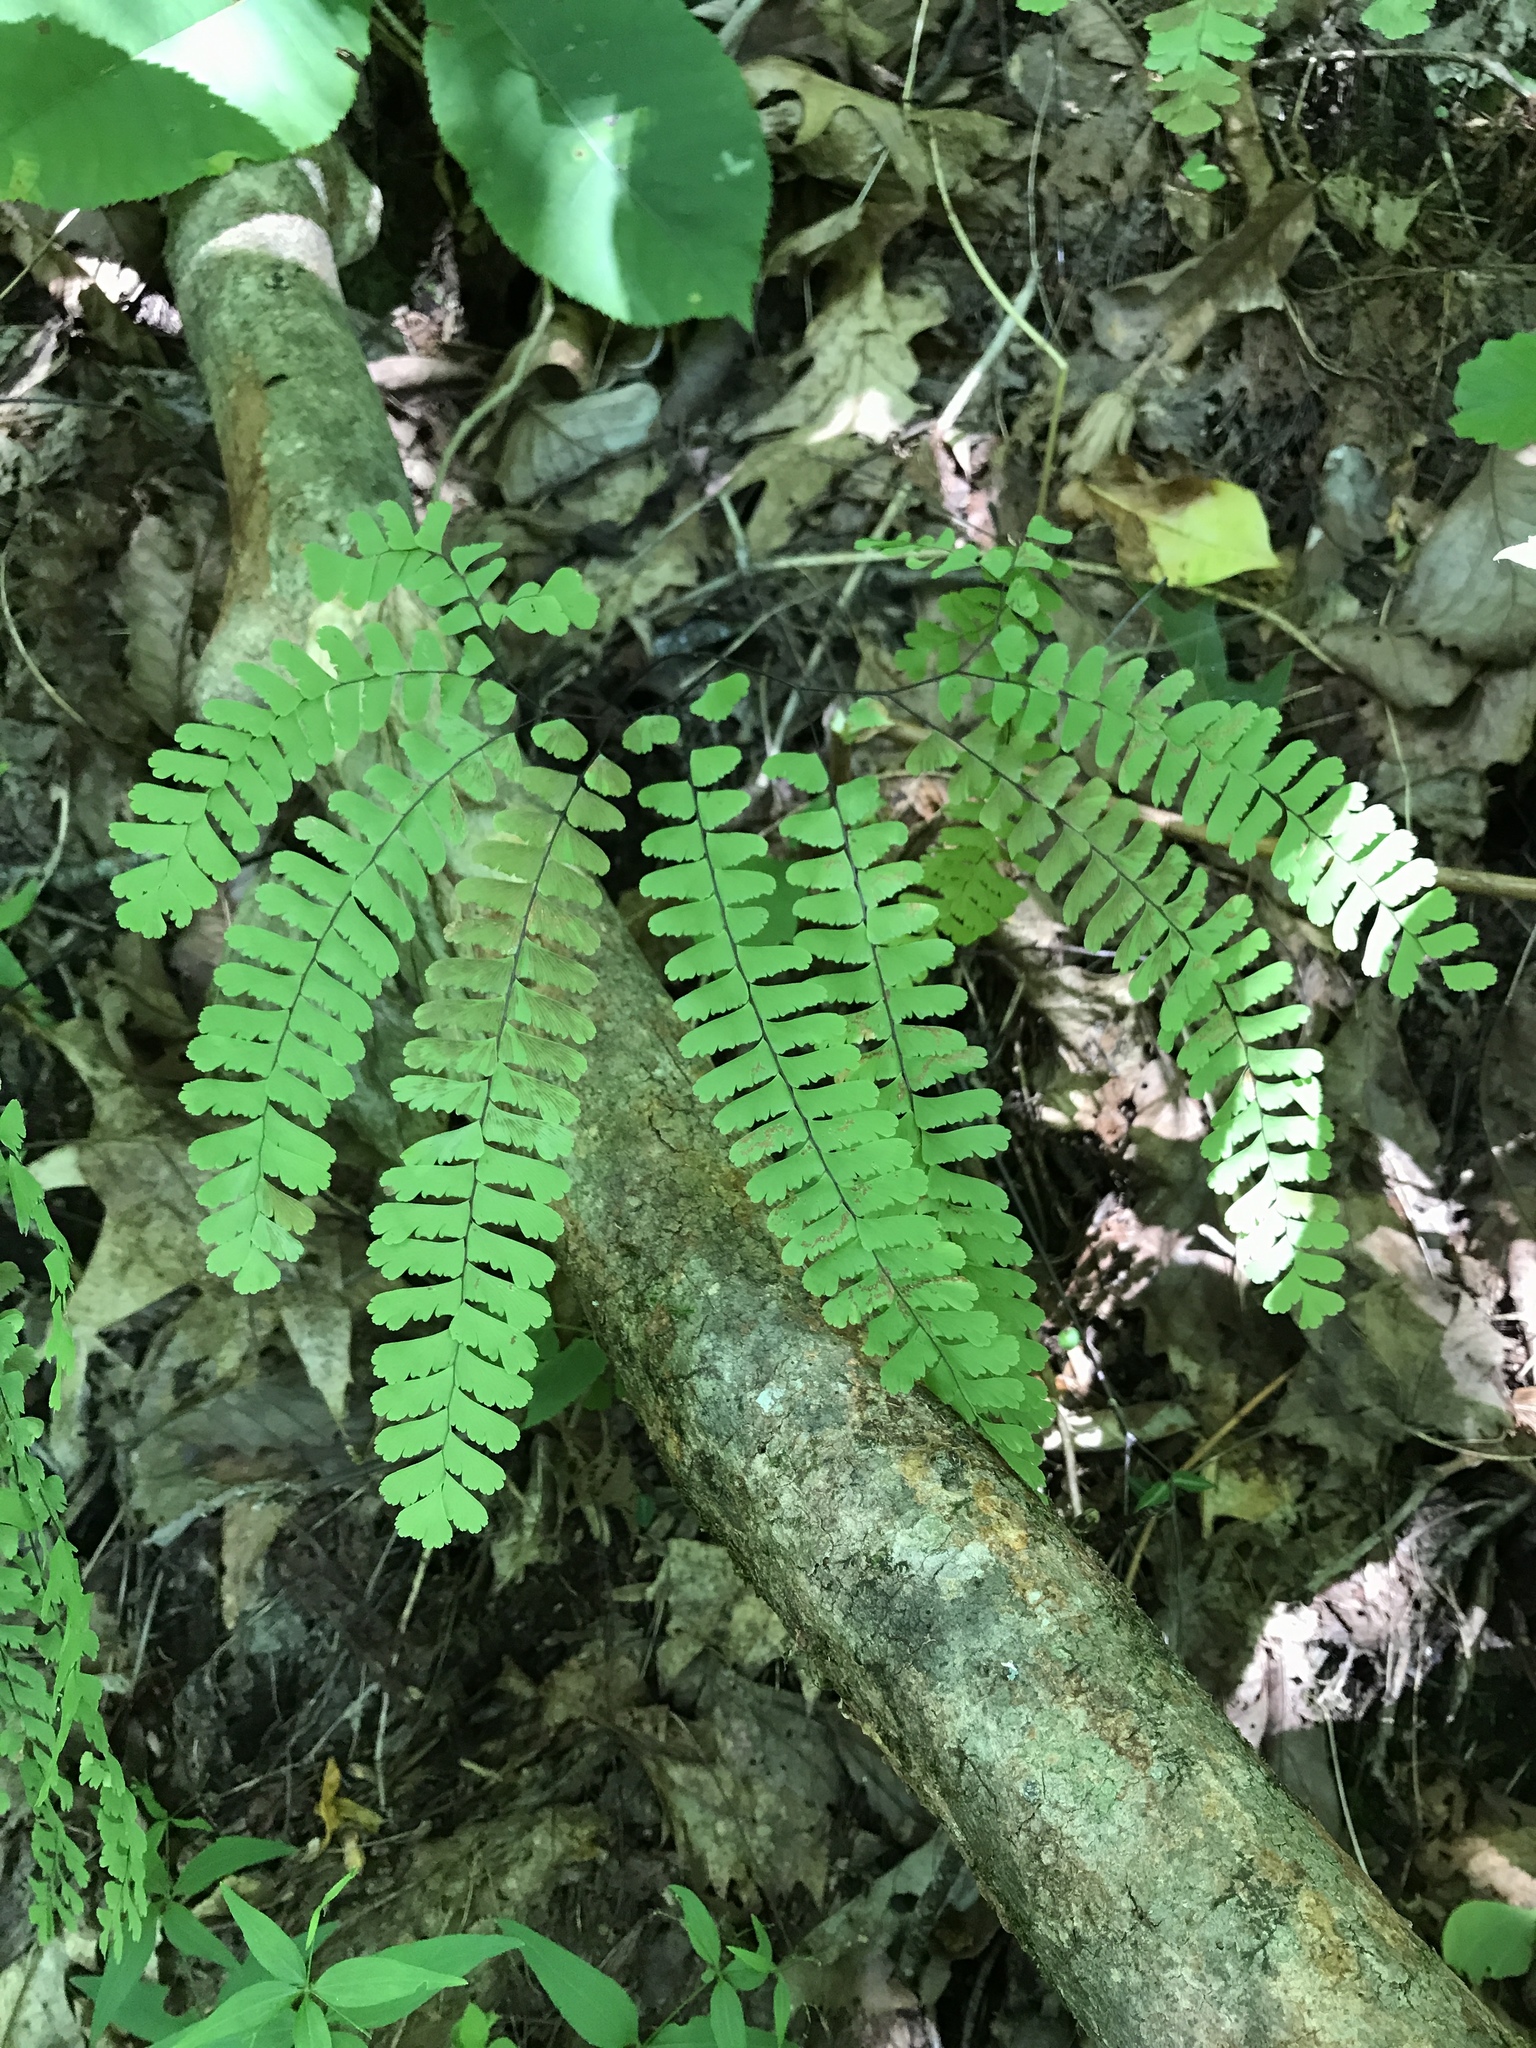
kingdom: Plantae
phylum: Tracheophyta
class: Polypodiopsida
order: Polypodiales
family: Pteridaceae
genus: Adiantum
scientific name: Adiantum pedatum
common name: Five-finger fern
